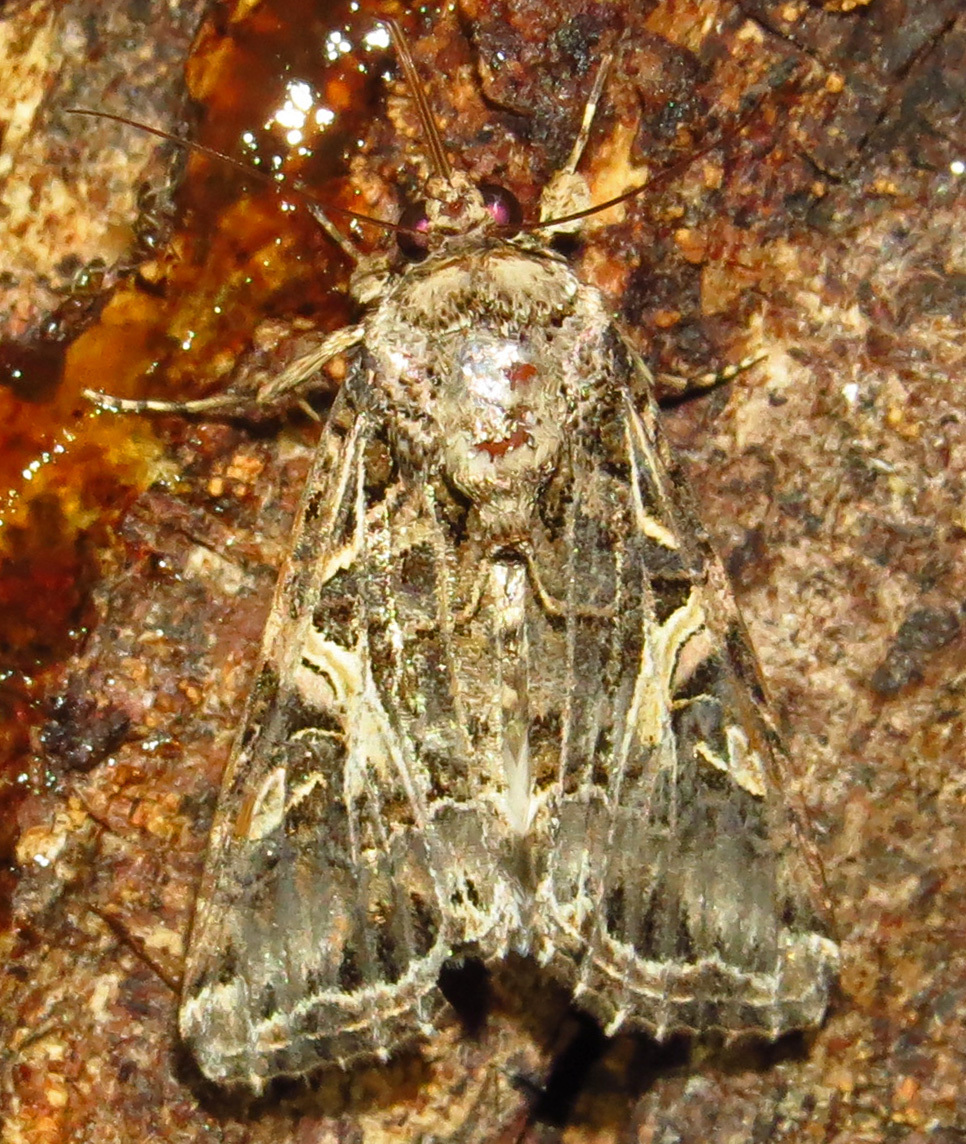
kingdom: Animalia
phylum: Arthropoda
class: Insecta
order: Lepidoptera
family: Noctuidae
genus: Spodoptera
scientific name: Spodoptera ornithogalli
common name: Yellow-striped armyworm
